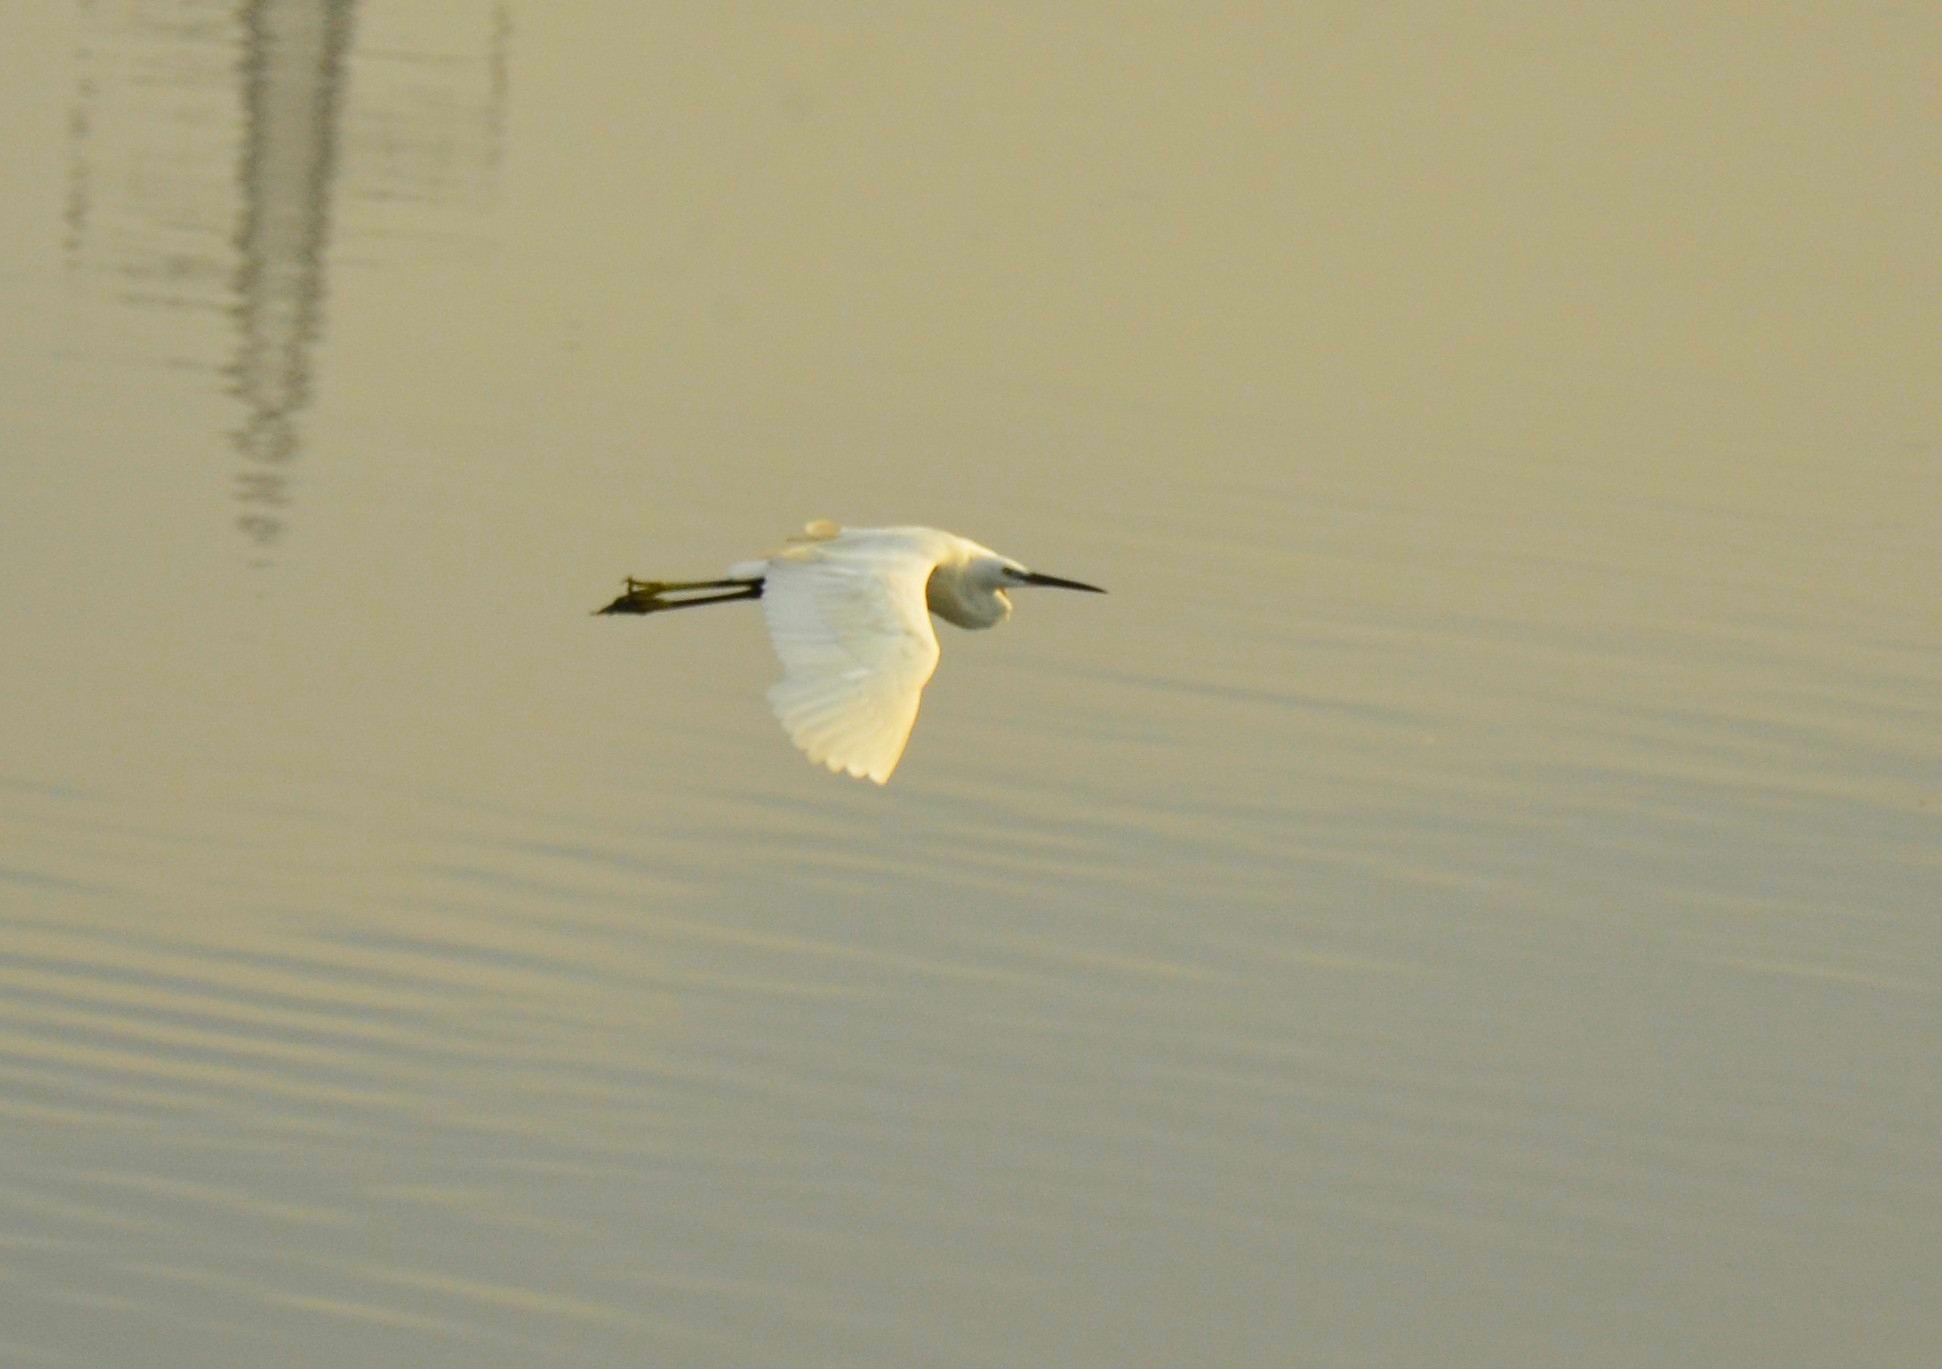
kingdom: Animalia
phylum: Chordata
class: Aves
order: Pelecaniformes
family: Ardeidae
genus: Egretta
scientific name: Egretta garzetta
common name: Little egret
